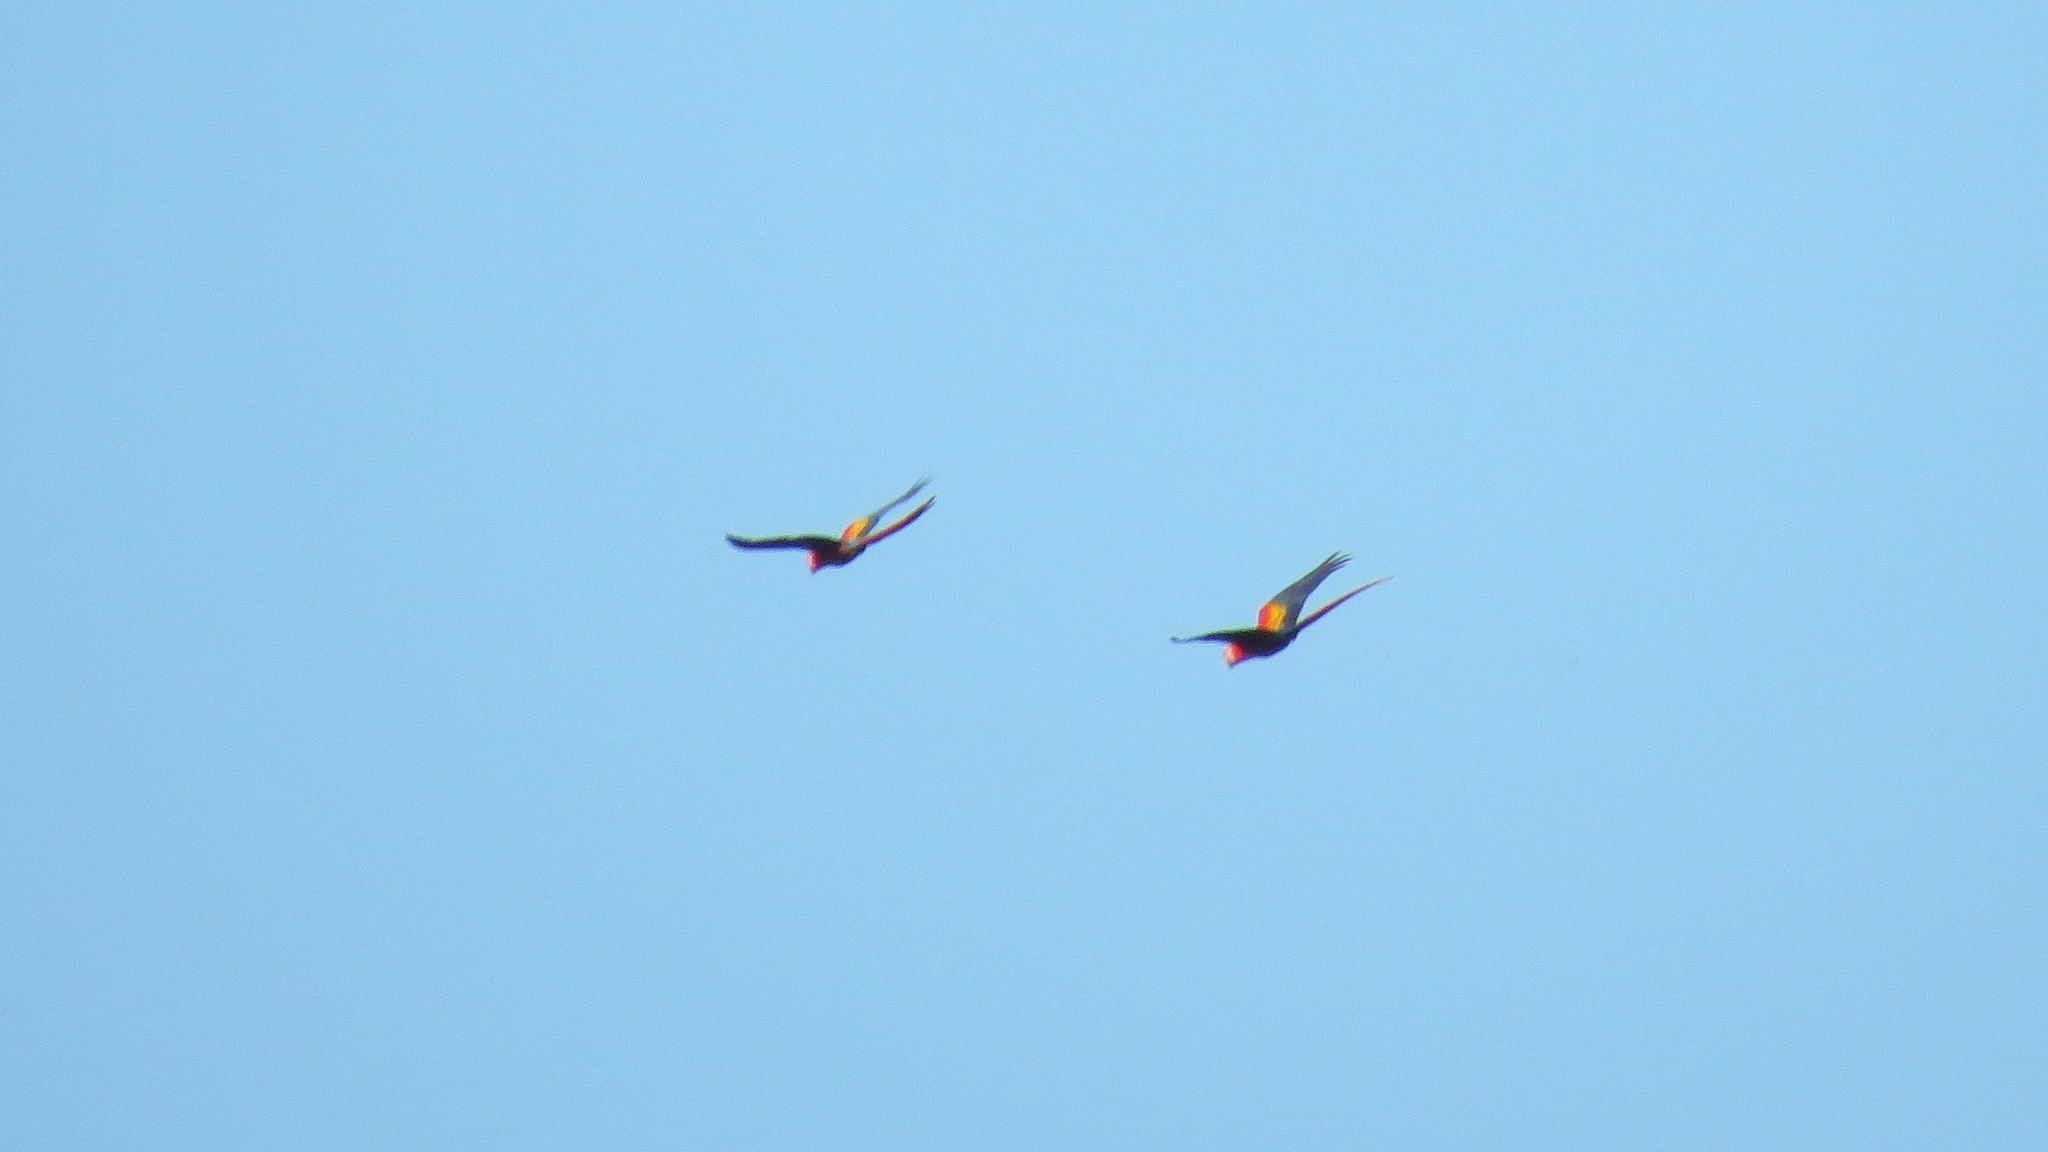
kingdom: Animalia
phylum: Chordata
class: Aves
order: Psittaciformes
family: Psittacidae
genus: Ara
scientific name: Ara macao
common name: Scarlet macaw
